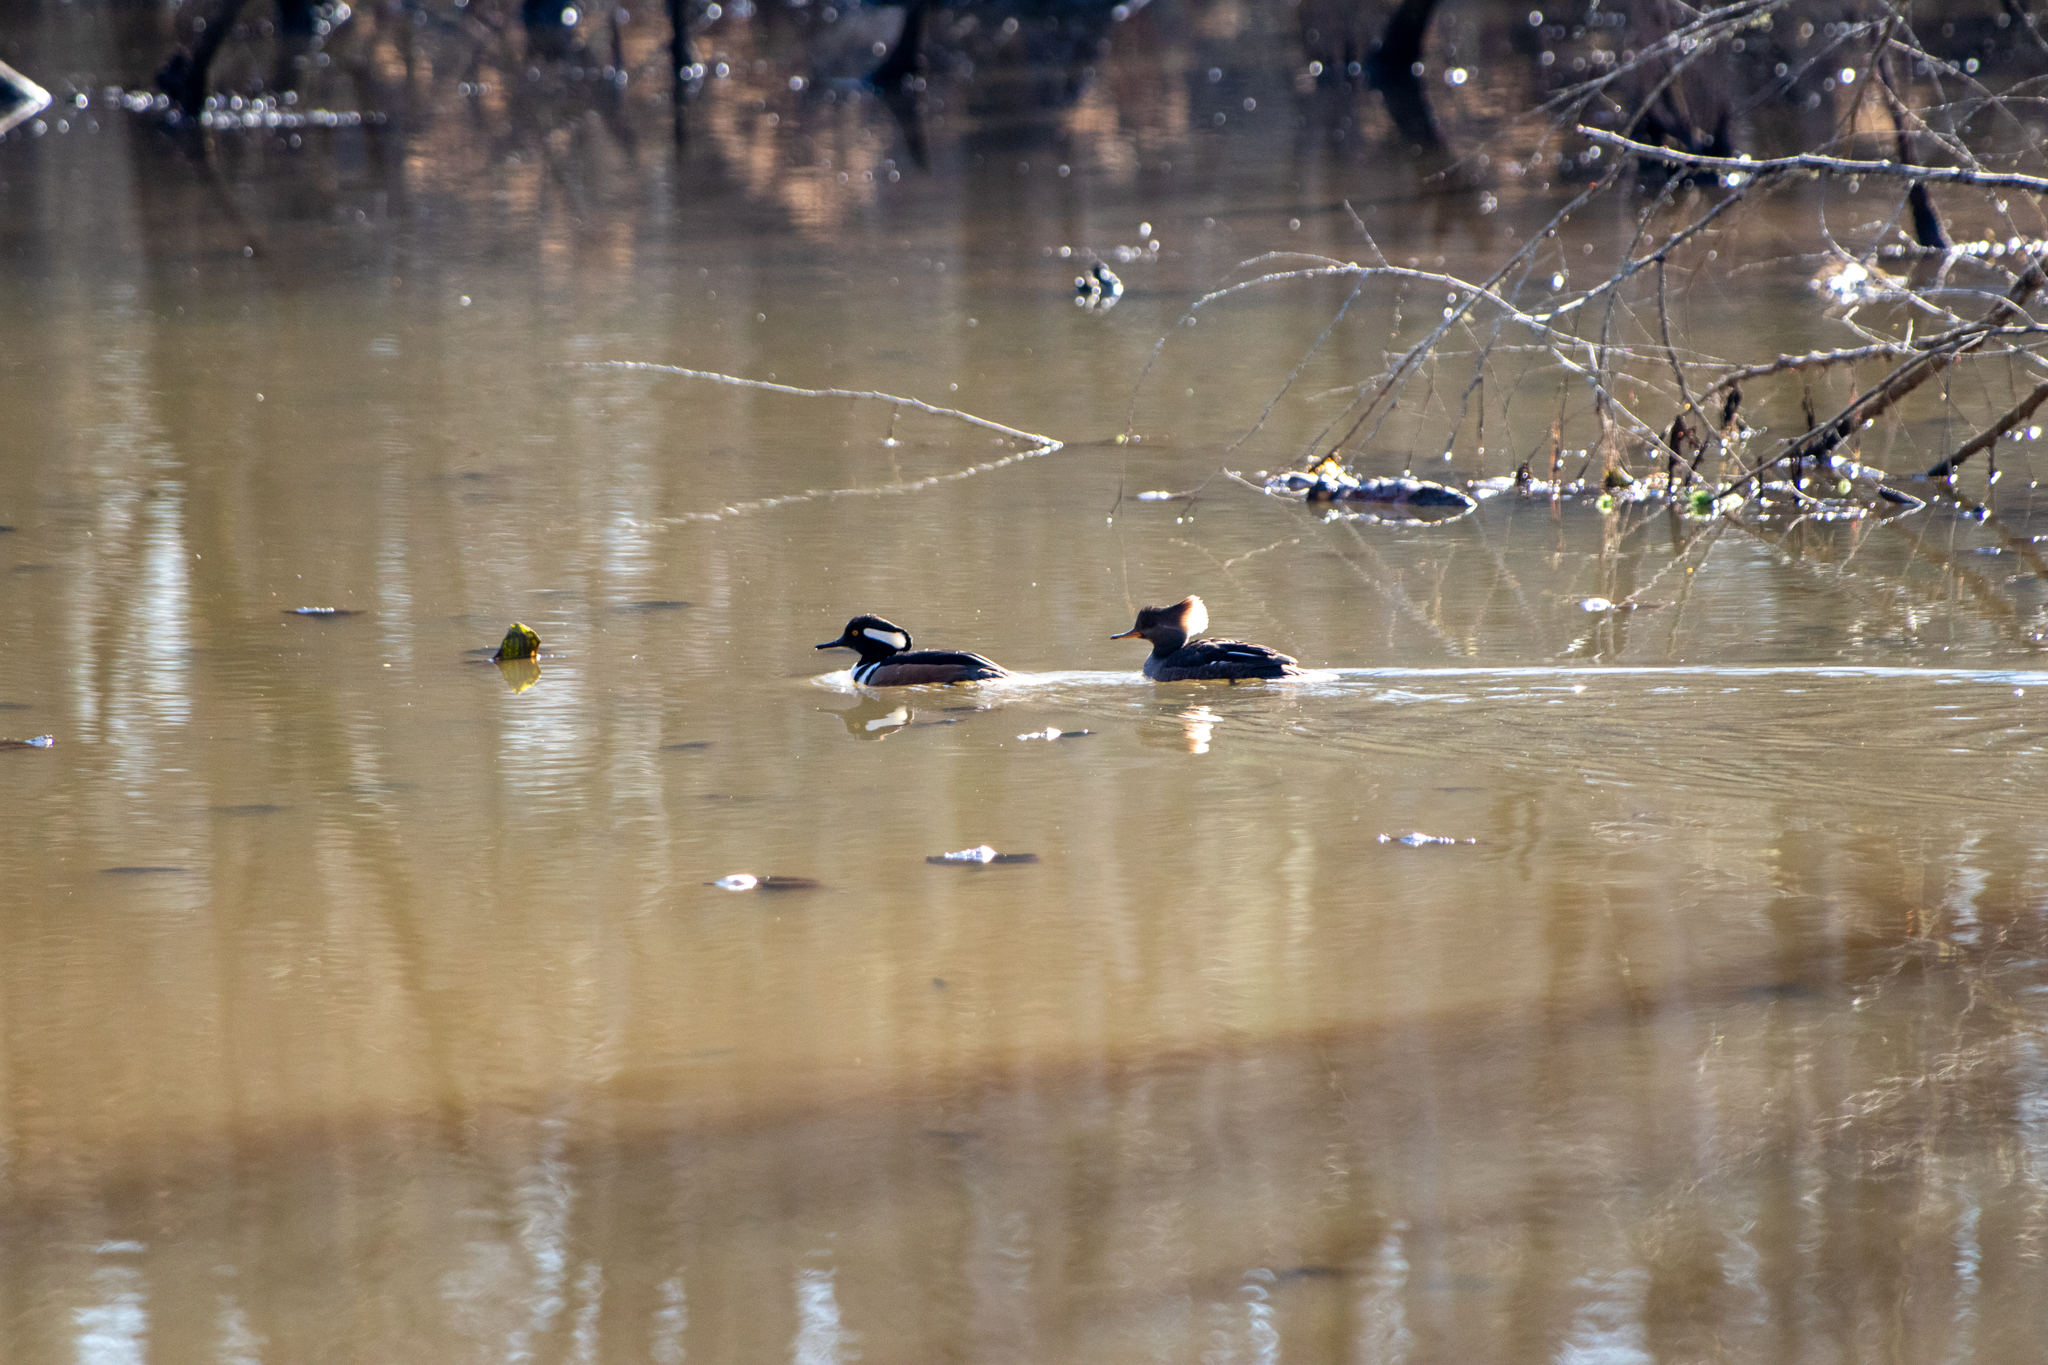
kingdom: Animalia
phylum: Chordata
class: Aves
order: Anseriformes
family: Anatidae
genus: Lophodytes
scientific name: Lophodytes cucullatus
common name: Hooded merganser
